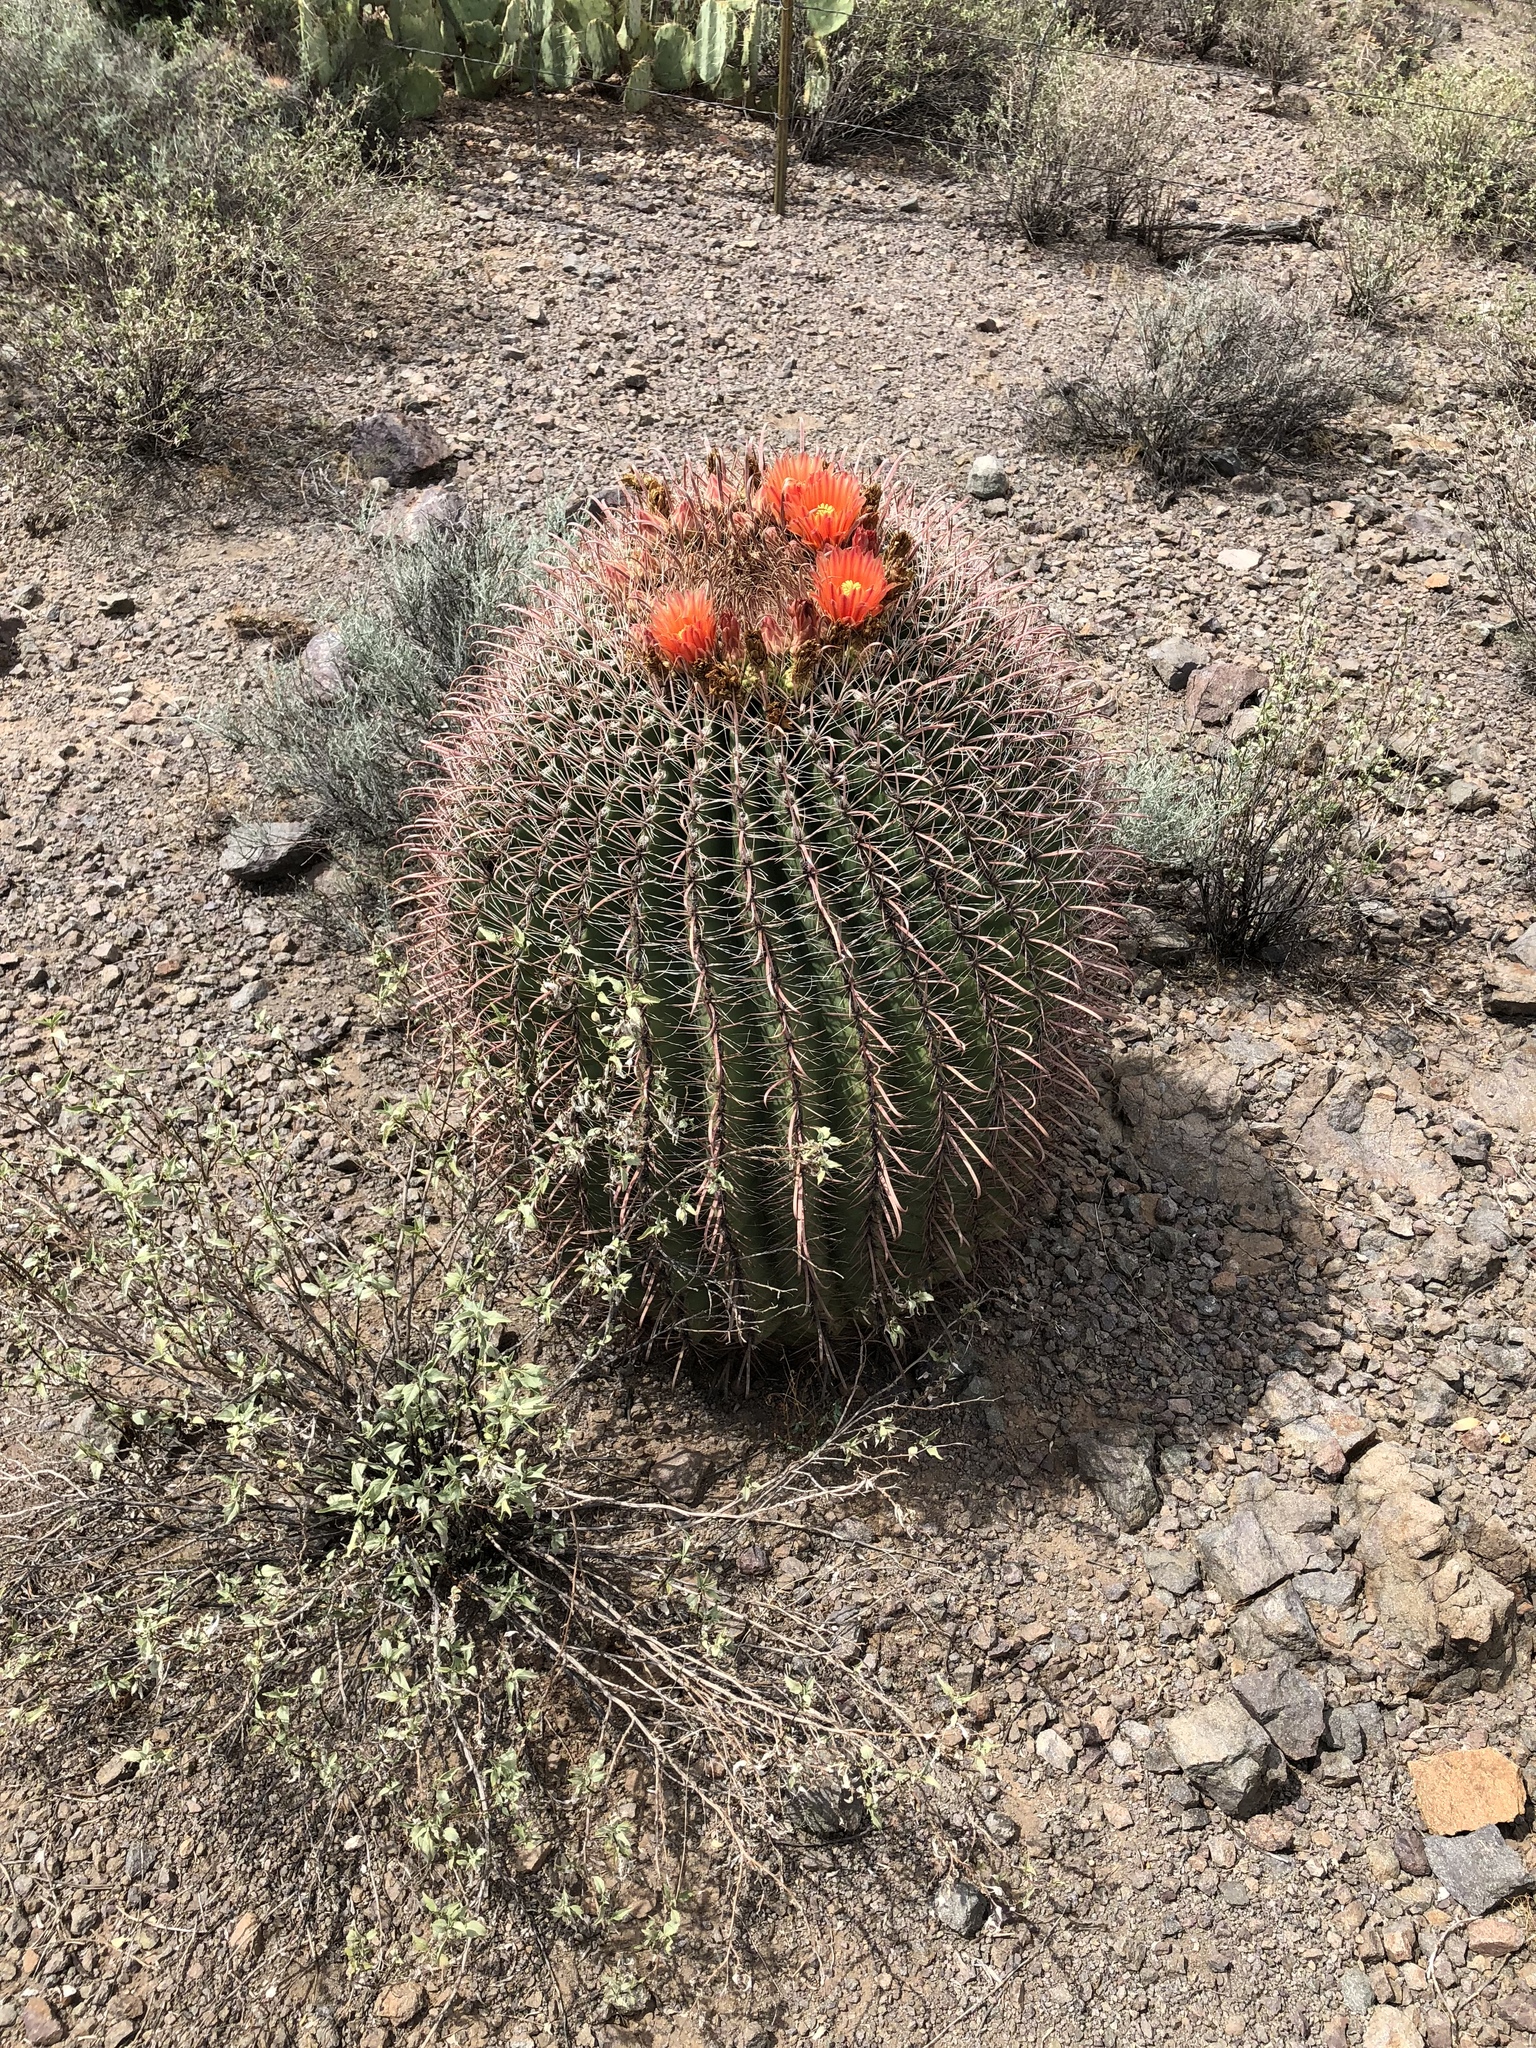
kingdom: Plantae
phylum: Tracheophyta
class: Magnoliopsida
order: Caryophyllales
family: Cactaceae
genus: Ferocactus
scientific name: Ferocactus wislizeni
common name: Candy barrel cactus
